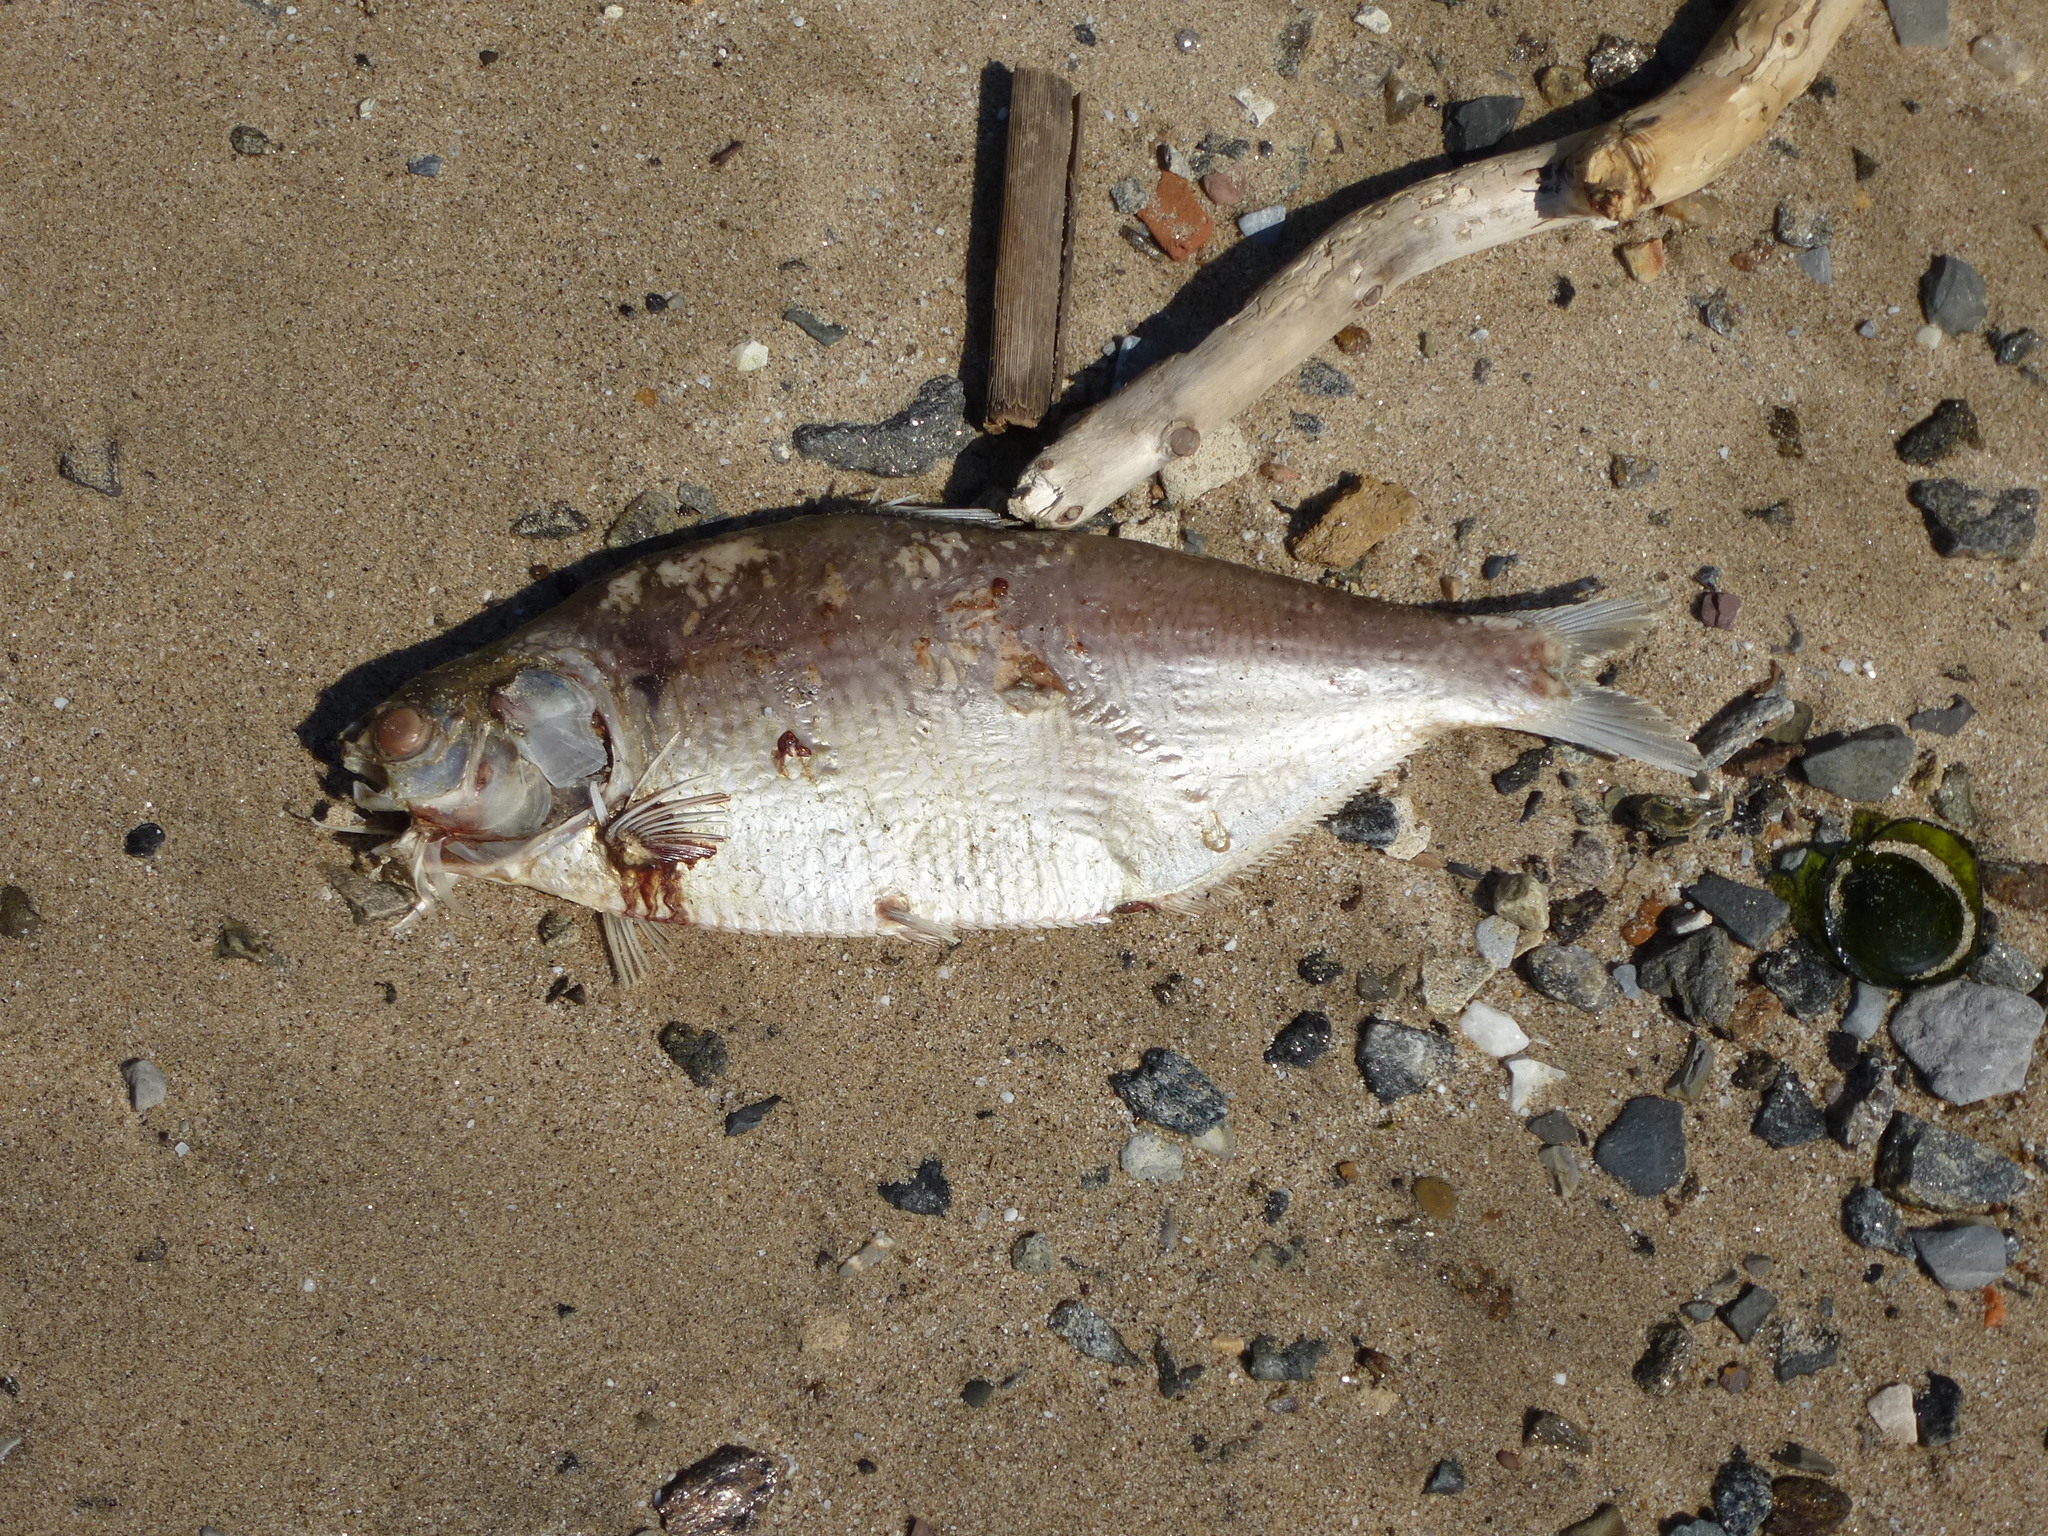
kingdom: Animalia
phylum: Chordata
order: Clupeiformes
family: Clupeidae
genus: Dorosoma
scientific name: Dorosoma cepedianum
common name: Gizzard shad
